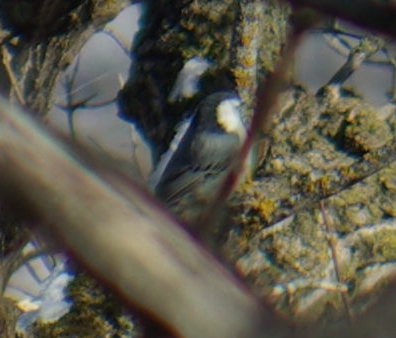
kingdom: Animalia
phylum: Chordata
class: Aves
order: Passeriformes
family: Sittidae
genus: Sitta
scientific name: Sitta carolinensis
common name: White-breasted nuthatch
